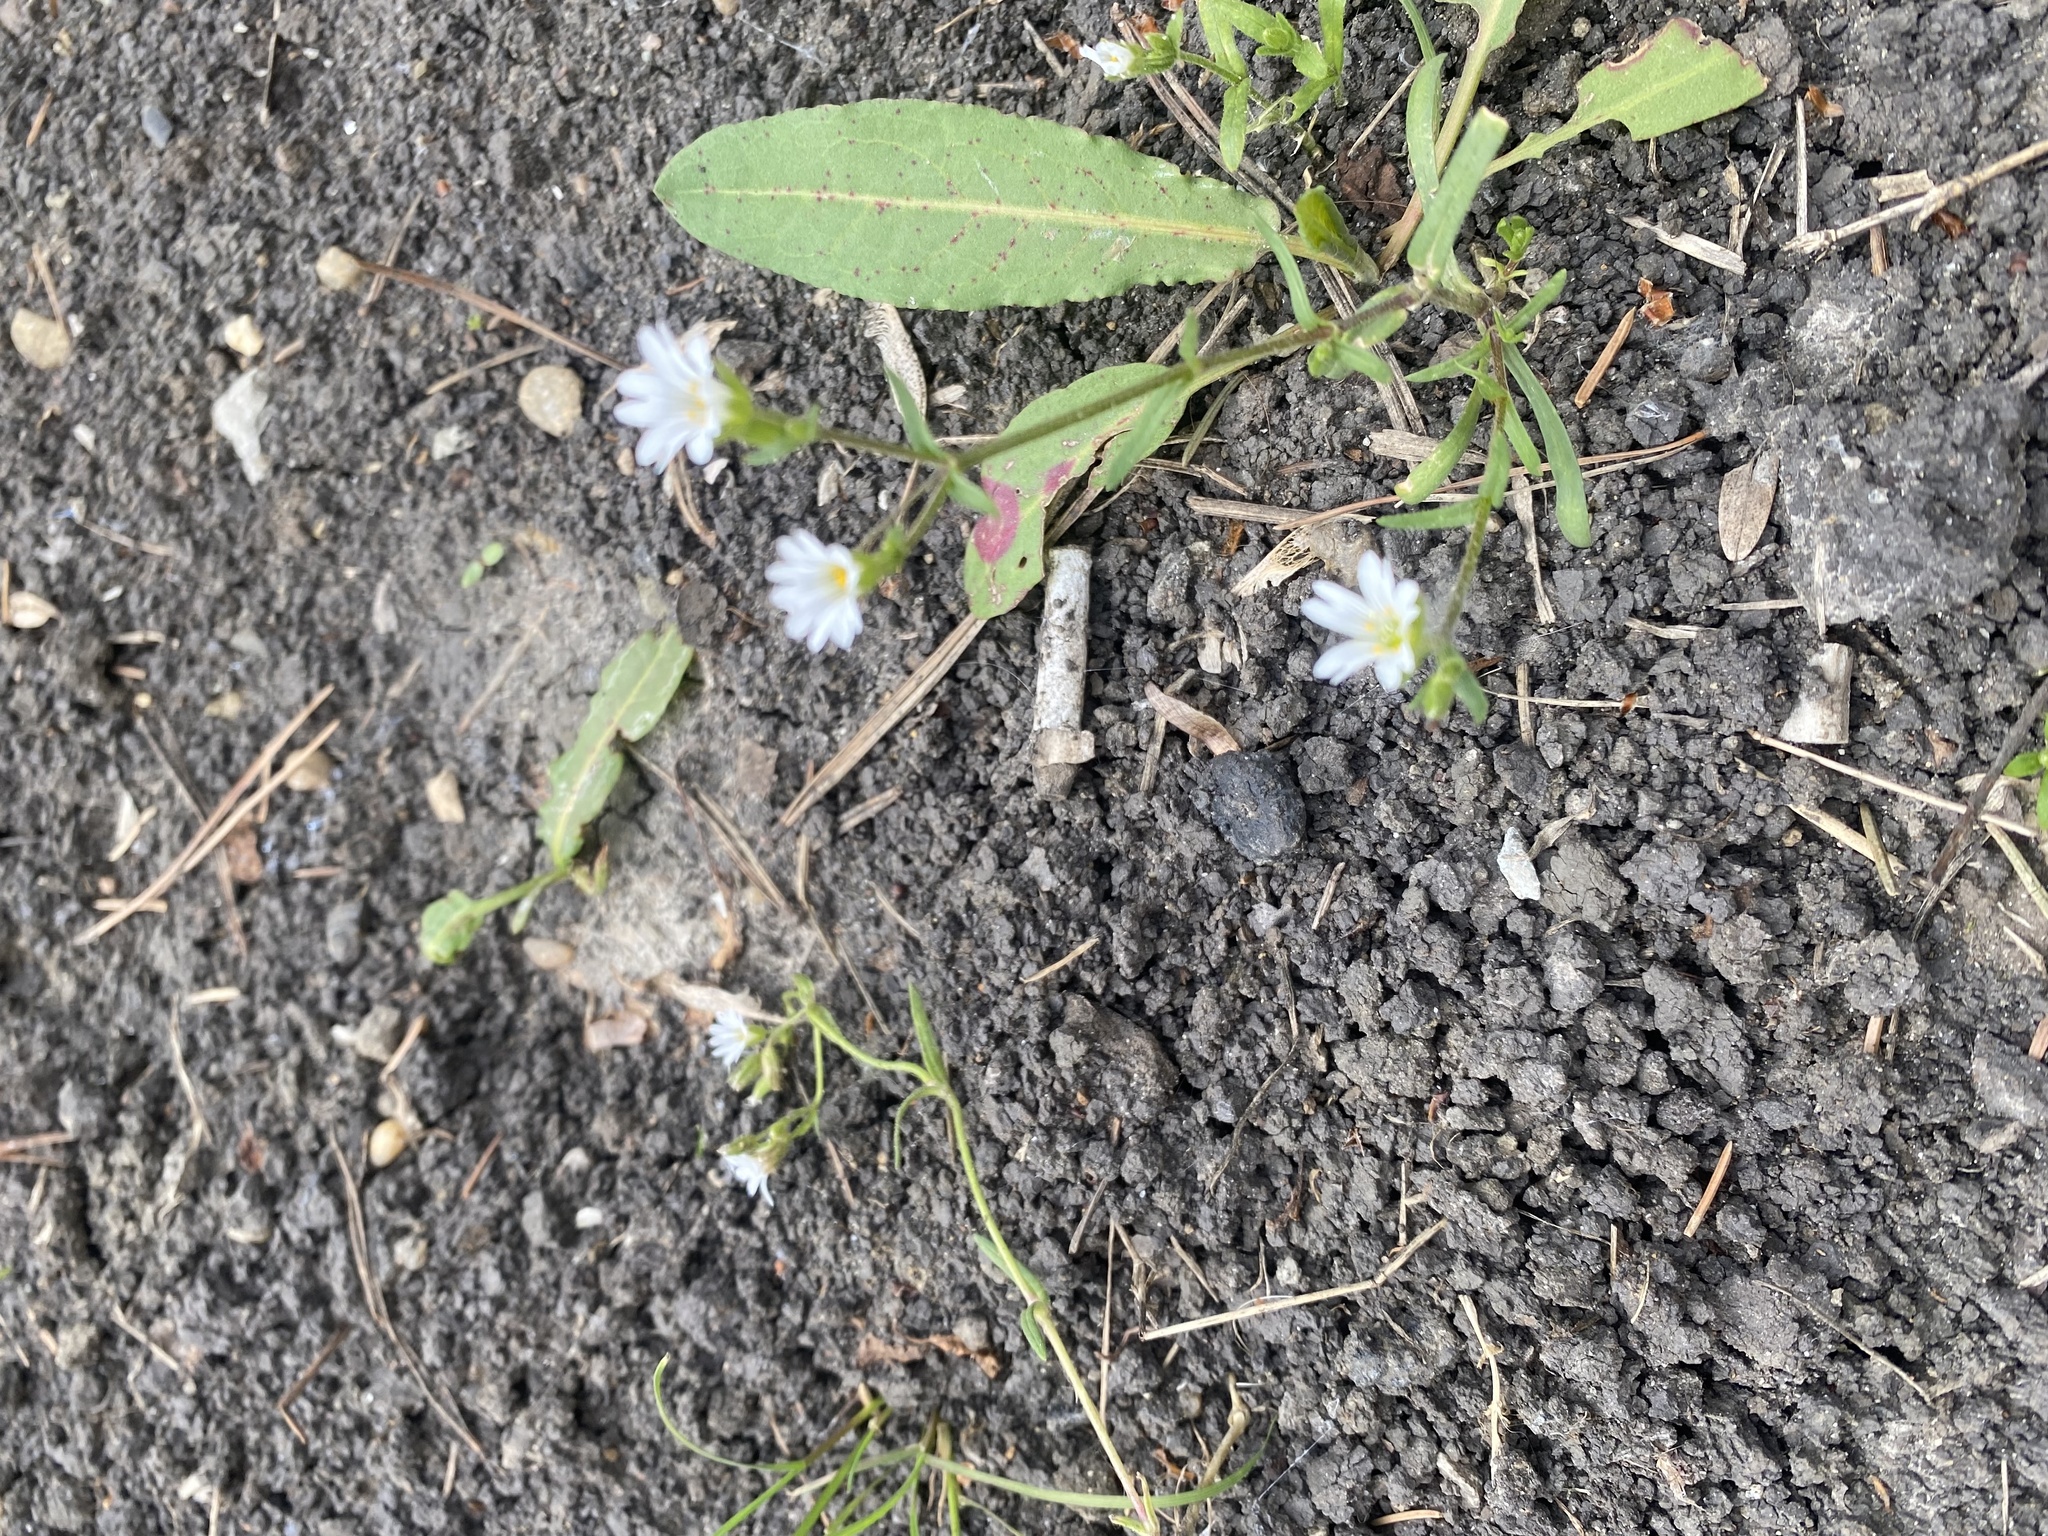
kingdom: Plantae
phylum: Tracheophyta
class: Magnoliopsida
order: Caryophyllales
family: Caryophyllaceae
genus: Dichodon
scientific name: Dichodon viscidum
